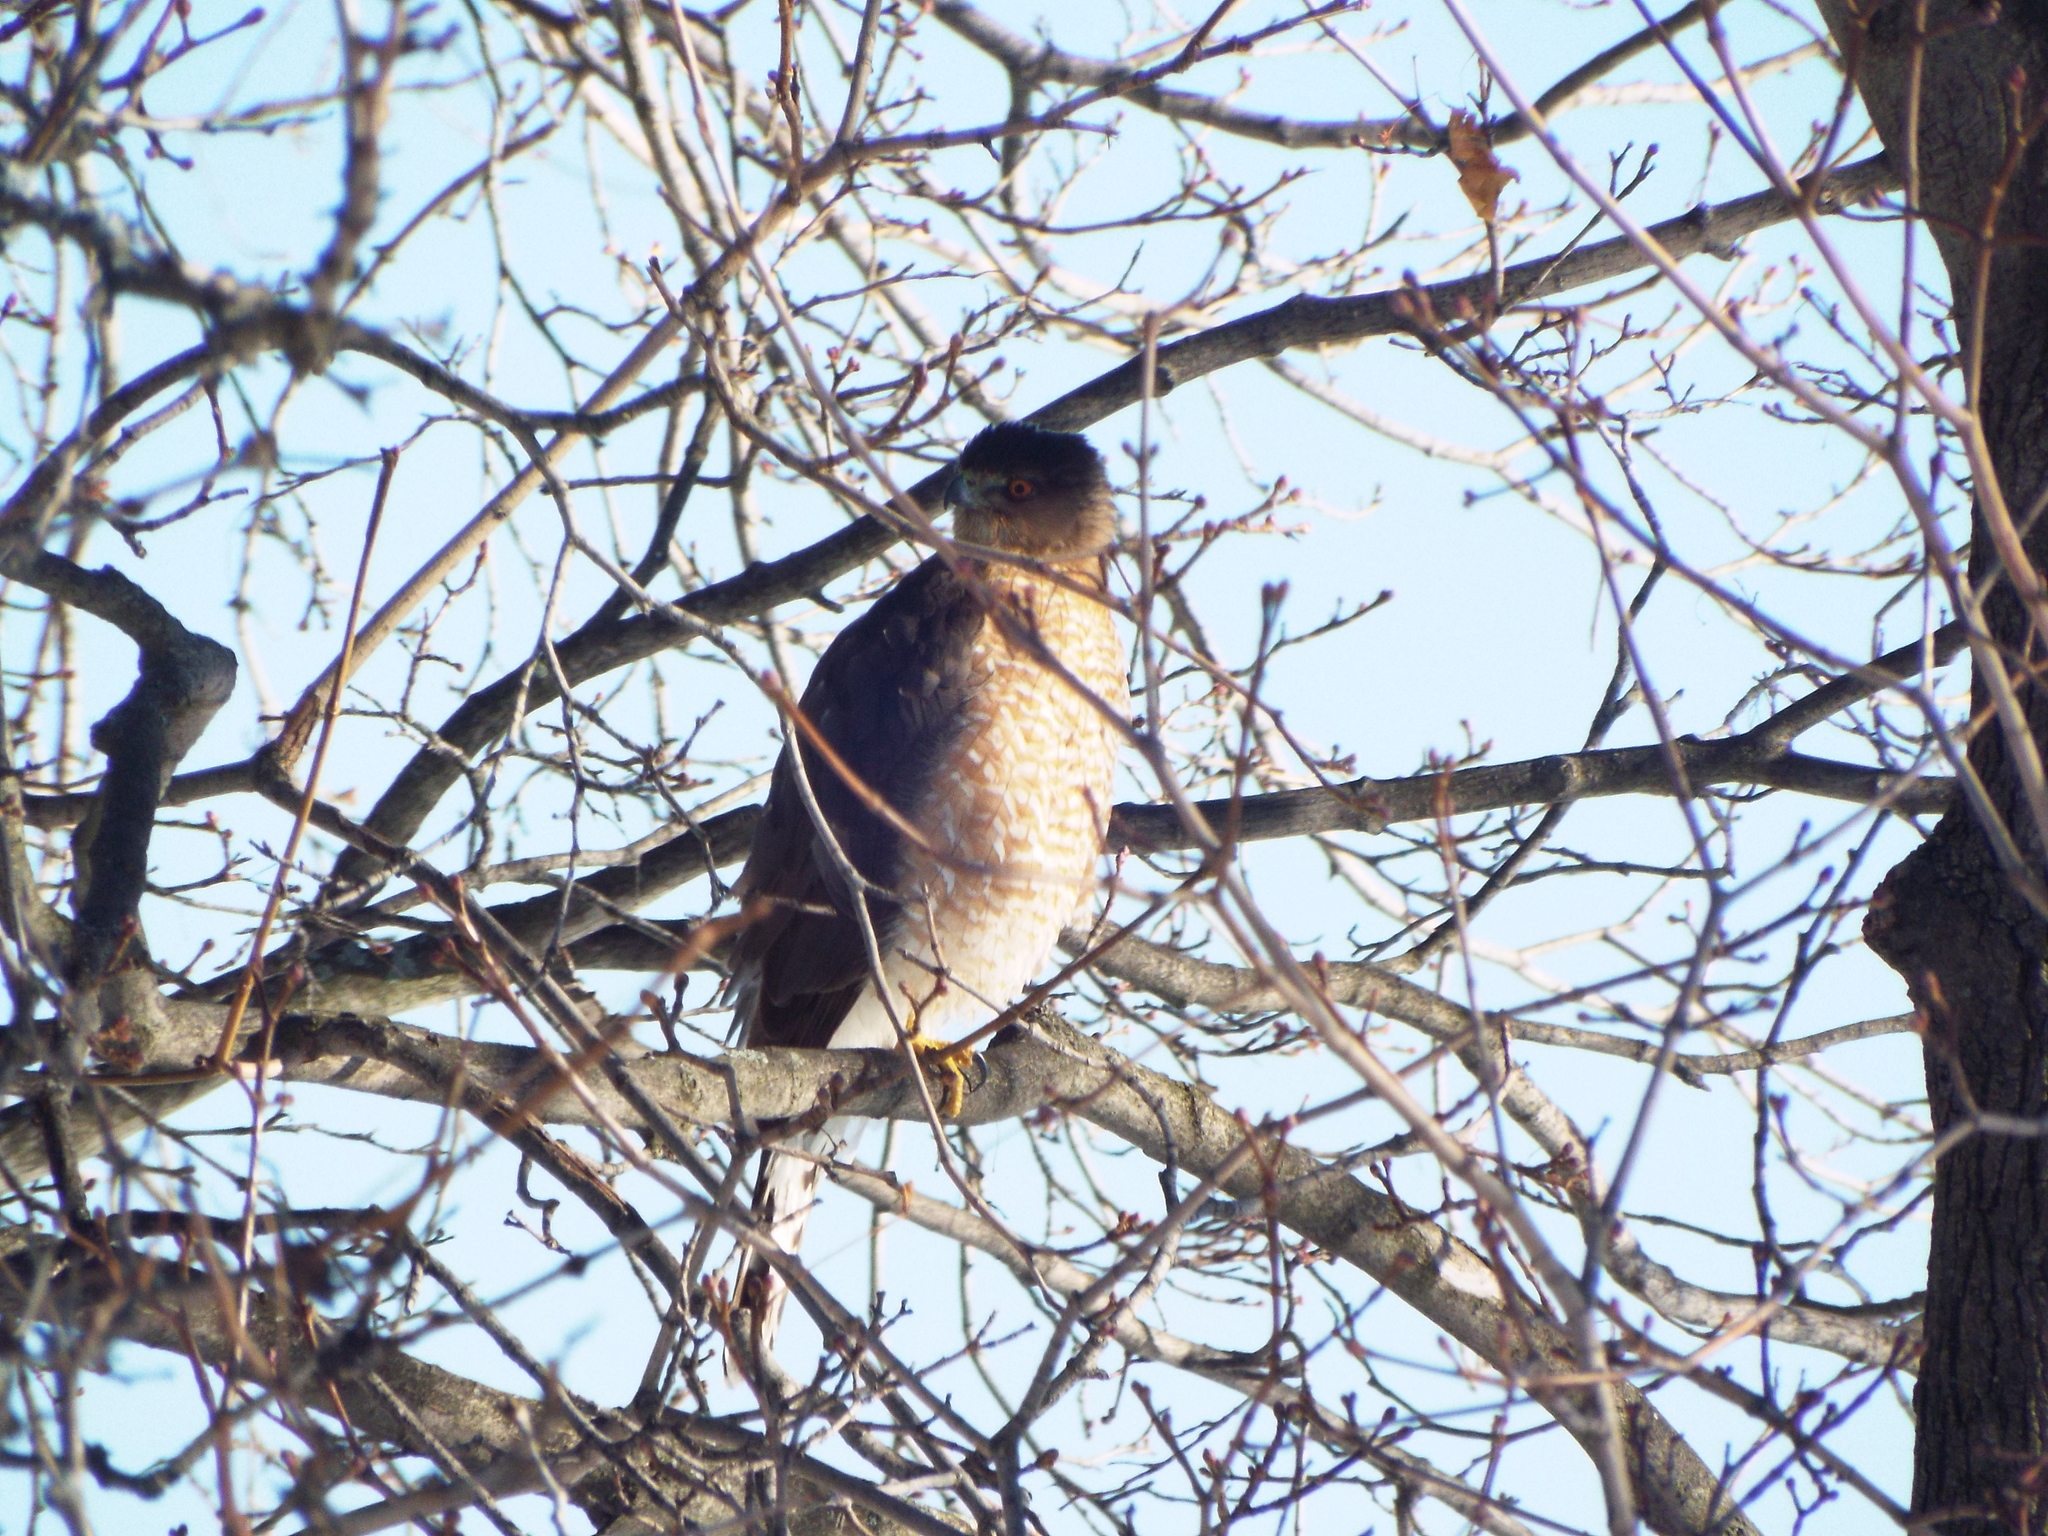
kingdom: Animalia
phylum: Chordata
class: Aves
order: Accipitriformes
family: Accipitridae
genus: Accipiter
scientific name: Accipiter cooperii
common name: Cooper's hawk
